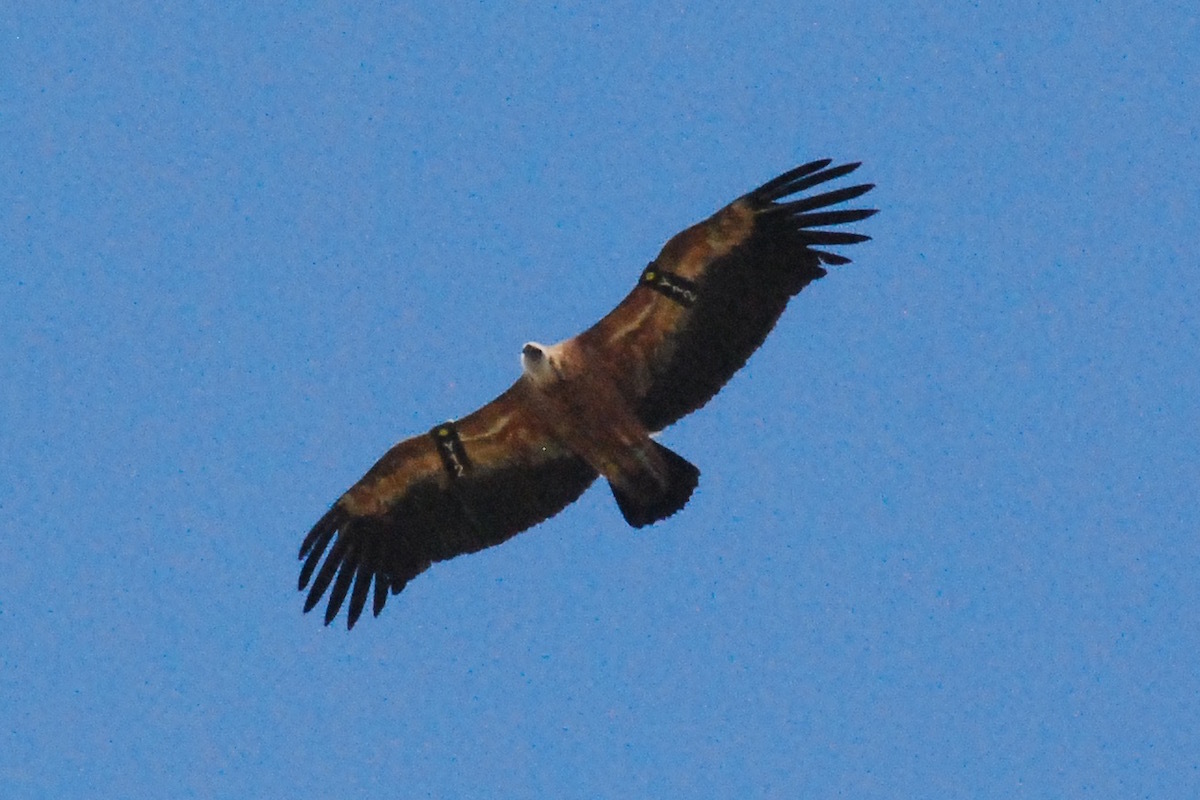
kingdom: Animalia
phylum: Chordata
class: Aves
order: Accipitriformes
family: Accipitridae
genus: Gyps
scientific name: Gyps fulvus
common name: Griffon vulture
